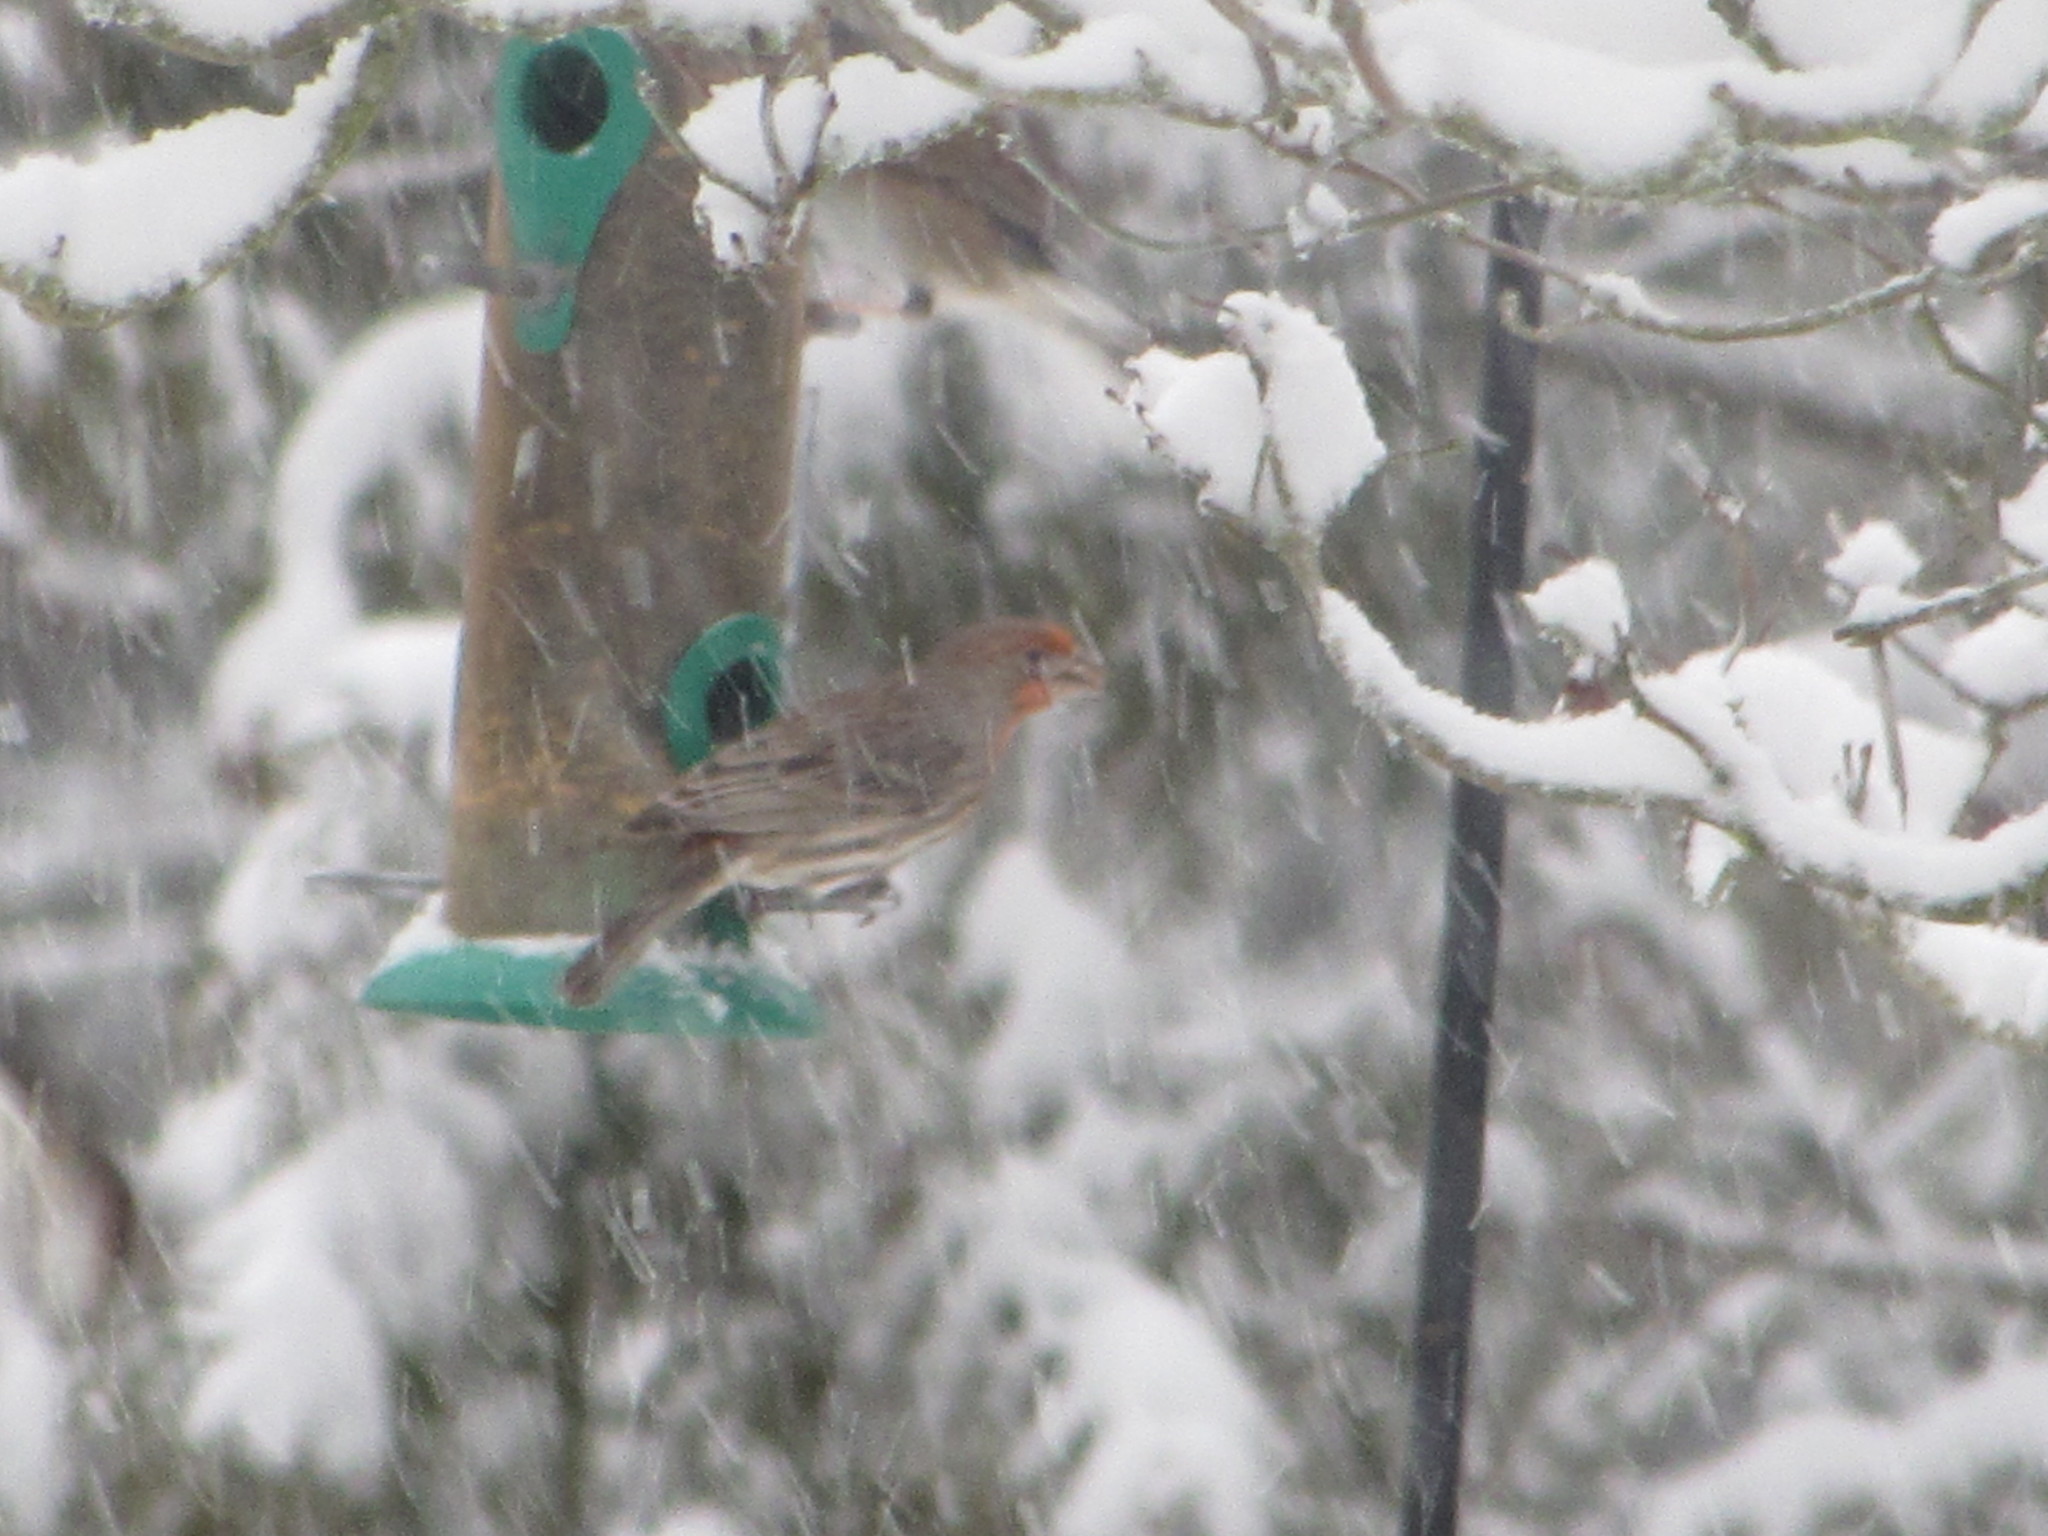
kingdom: Animalia
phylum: Chordata
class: Aves
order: Passeriformes
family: Fringillidae
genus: Haemorhous
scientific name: Haemorhous mexicanus
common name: House finch
